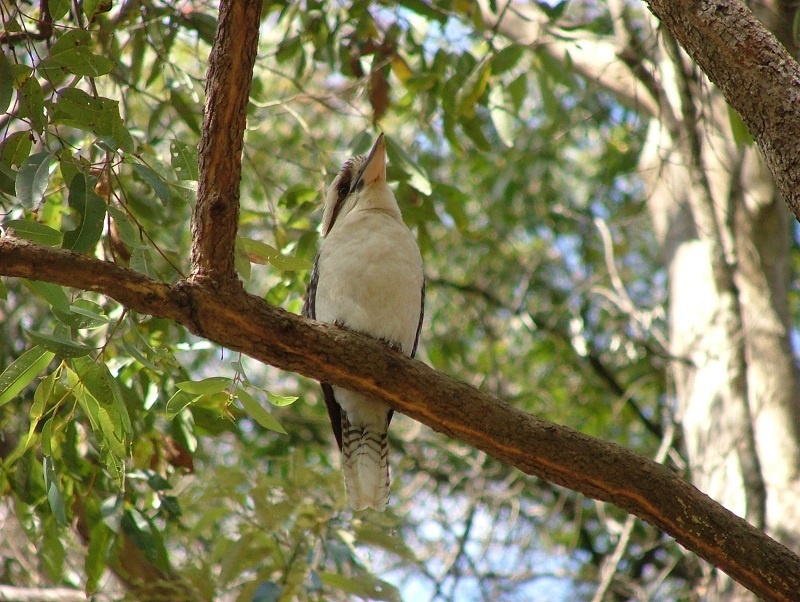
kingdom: Animalia
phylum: Chordata
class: Aves
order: Coraciiformes
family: Alcedinidae
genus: Dacelo
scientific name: Dacelo novaeguineae
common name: Laughing kookaburra
